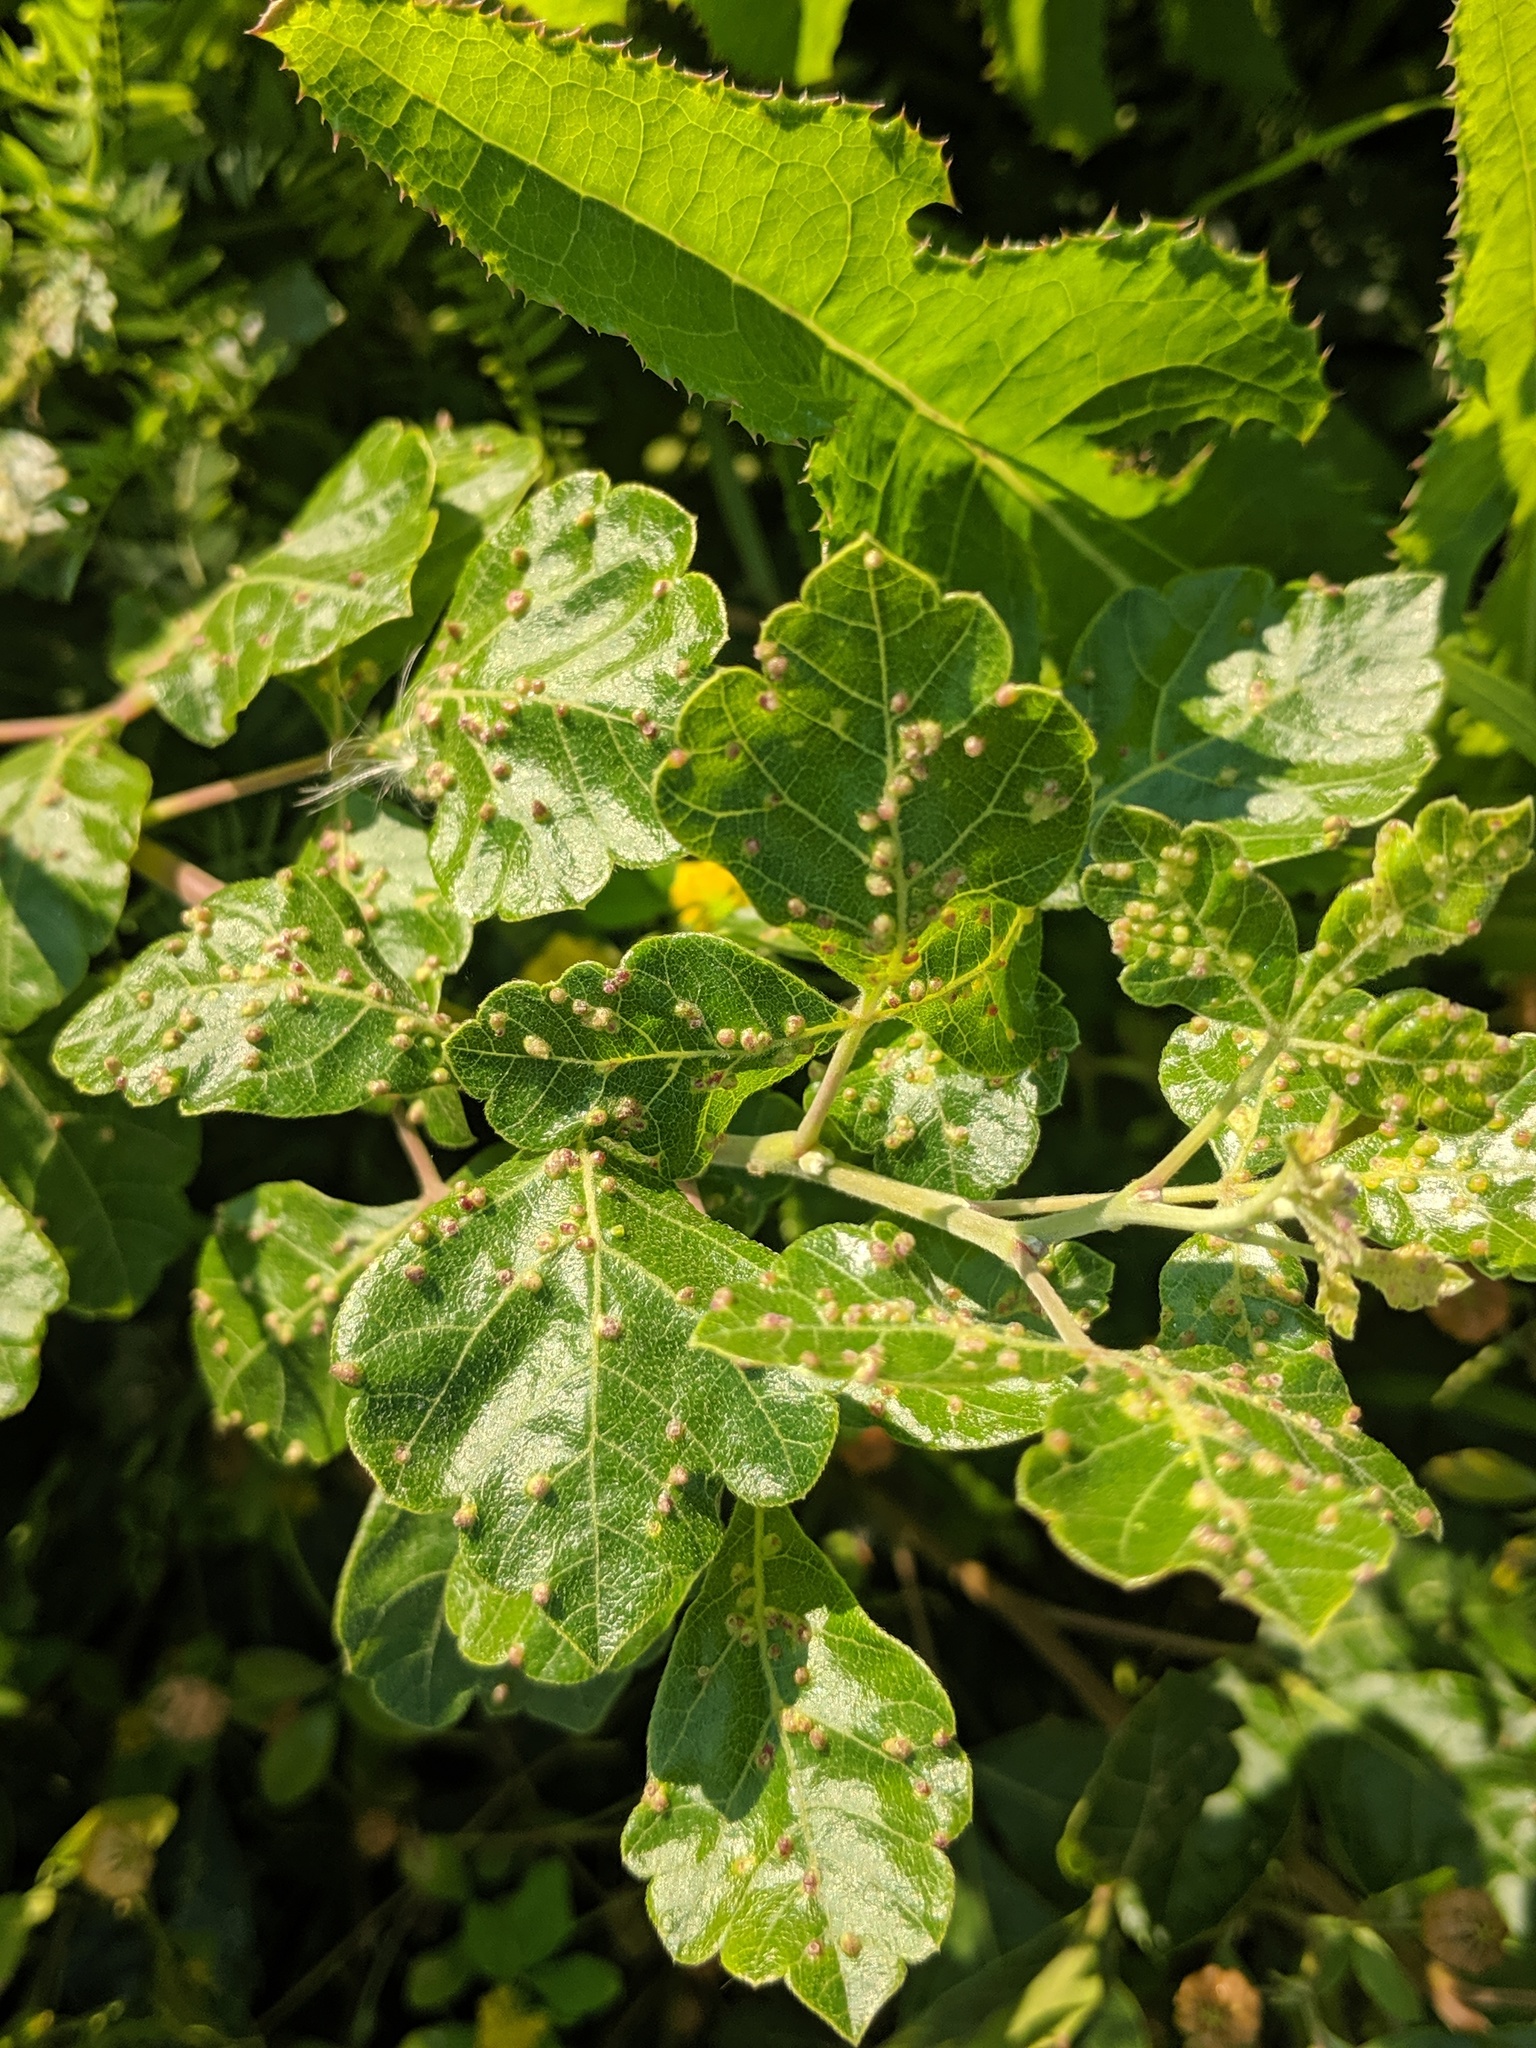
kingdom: Animalia
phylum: Arthropoda
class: Arachnida
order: Trombidiformes
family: Eriophyidae
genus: Aculops
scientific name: Aculops
